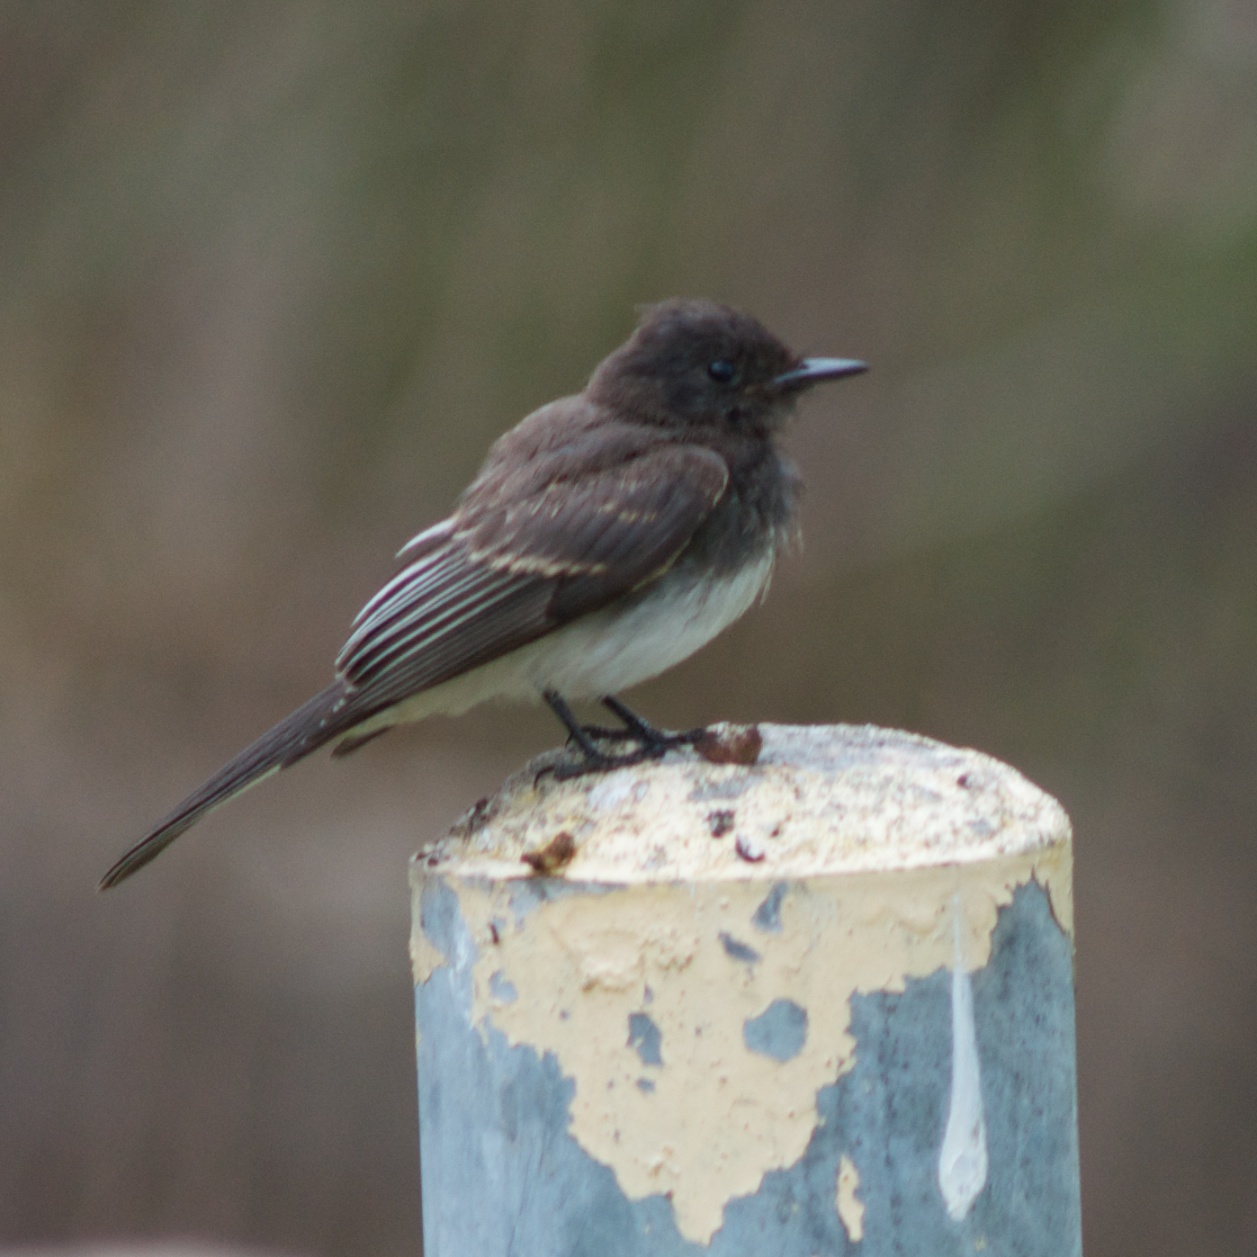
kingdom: Animalia
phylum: Chordata
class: Aves
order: Passeriformes
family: Tyrannidae
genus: Sayornis
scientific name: Sayornis nigricans
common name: Black phoebe
